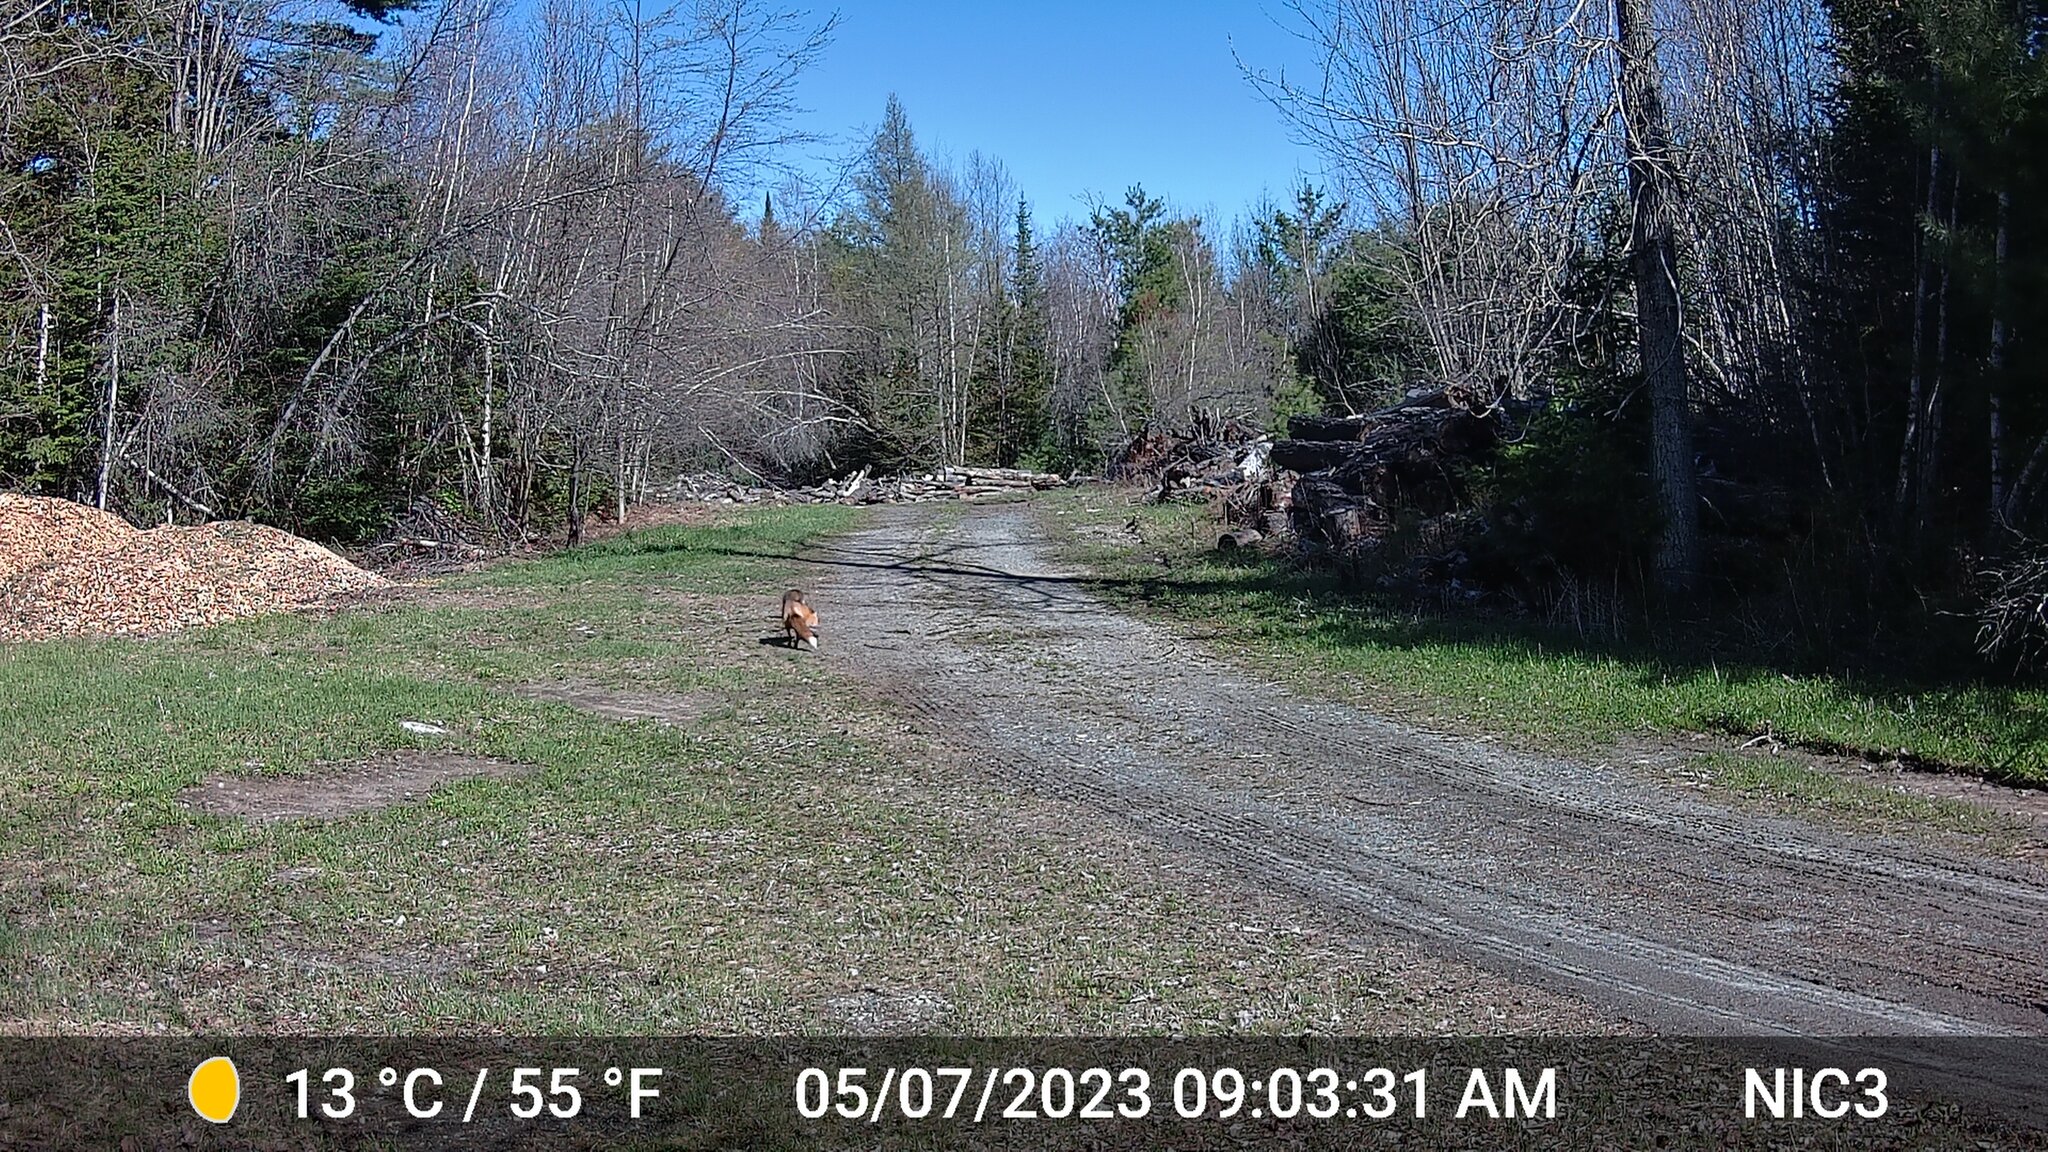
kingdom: Animalia
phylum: Chordata
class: Mammalia
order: Carnivora
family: Canidae
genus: Vulpes
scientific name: Vulpes vulpes
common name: Red fox
